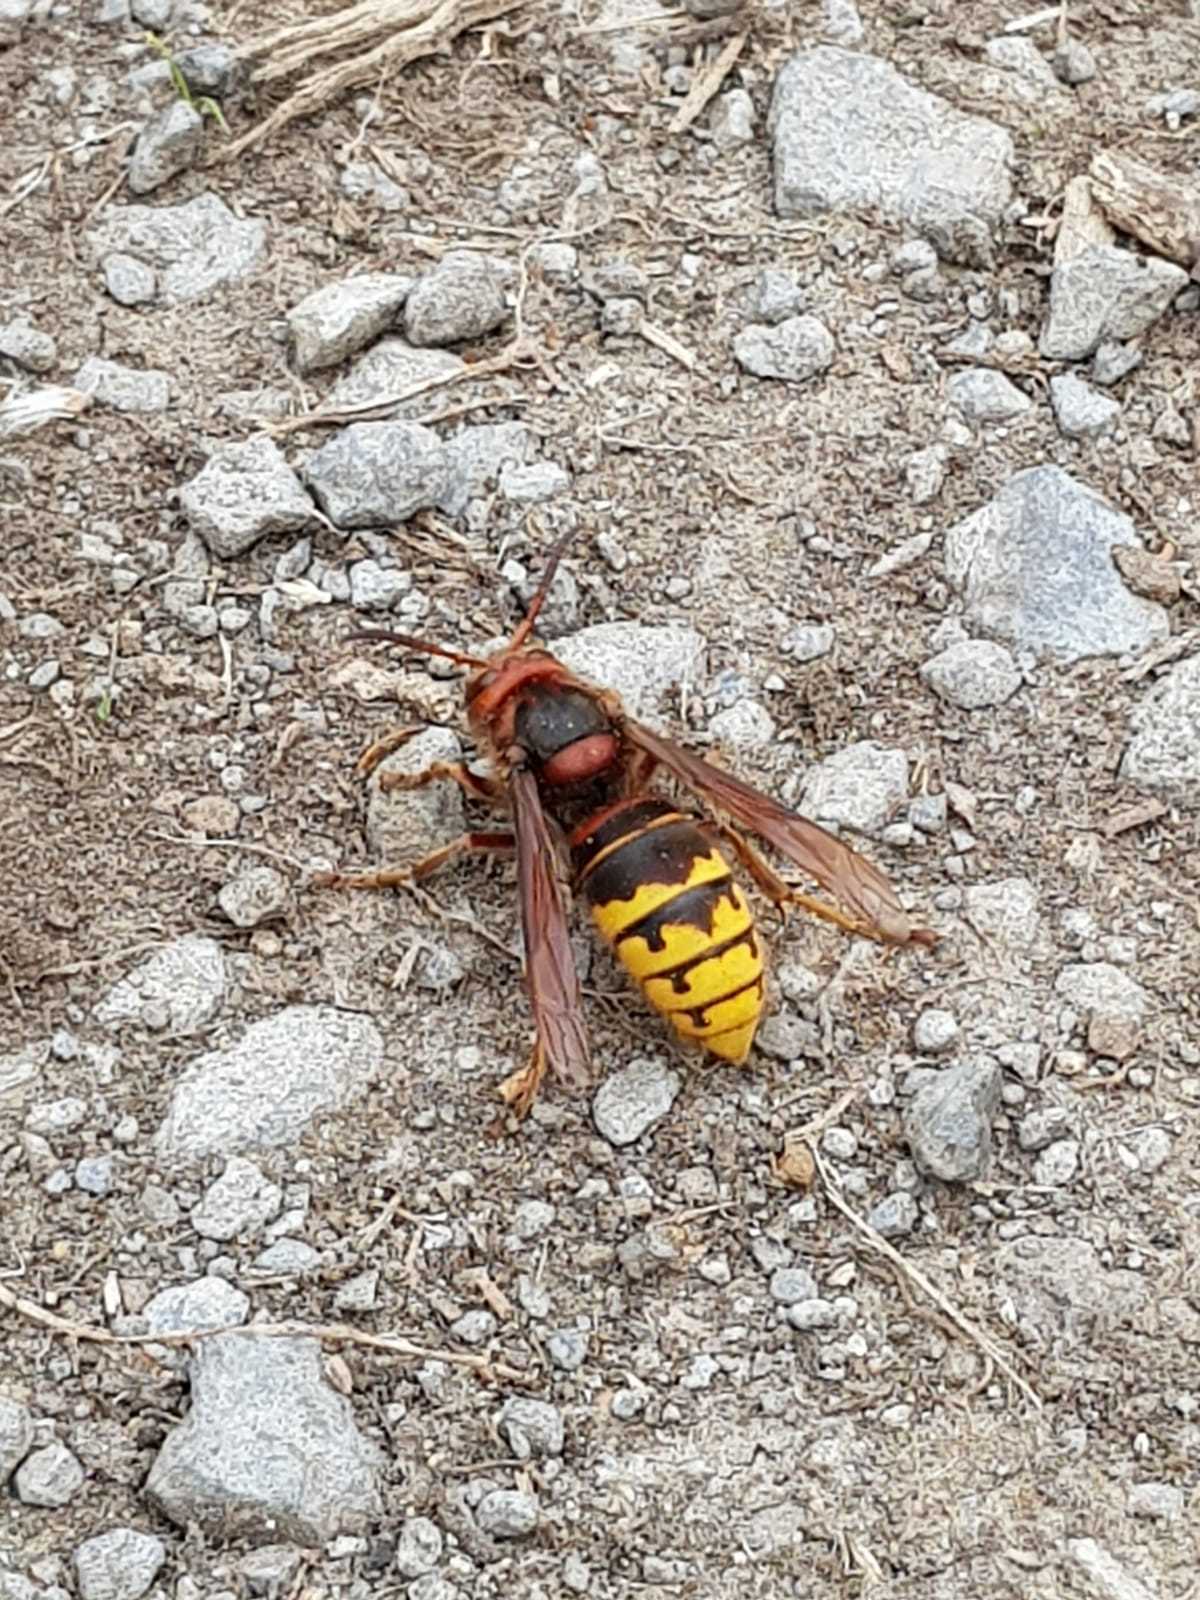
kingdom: Animalia
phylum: Arthropoda
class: Insecta
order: Hymenoptera
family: Vespidae
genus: Vespa
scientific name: Vespa crabro
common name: Hornet
